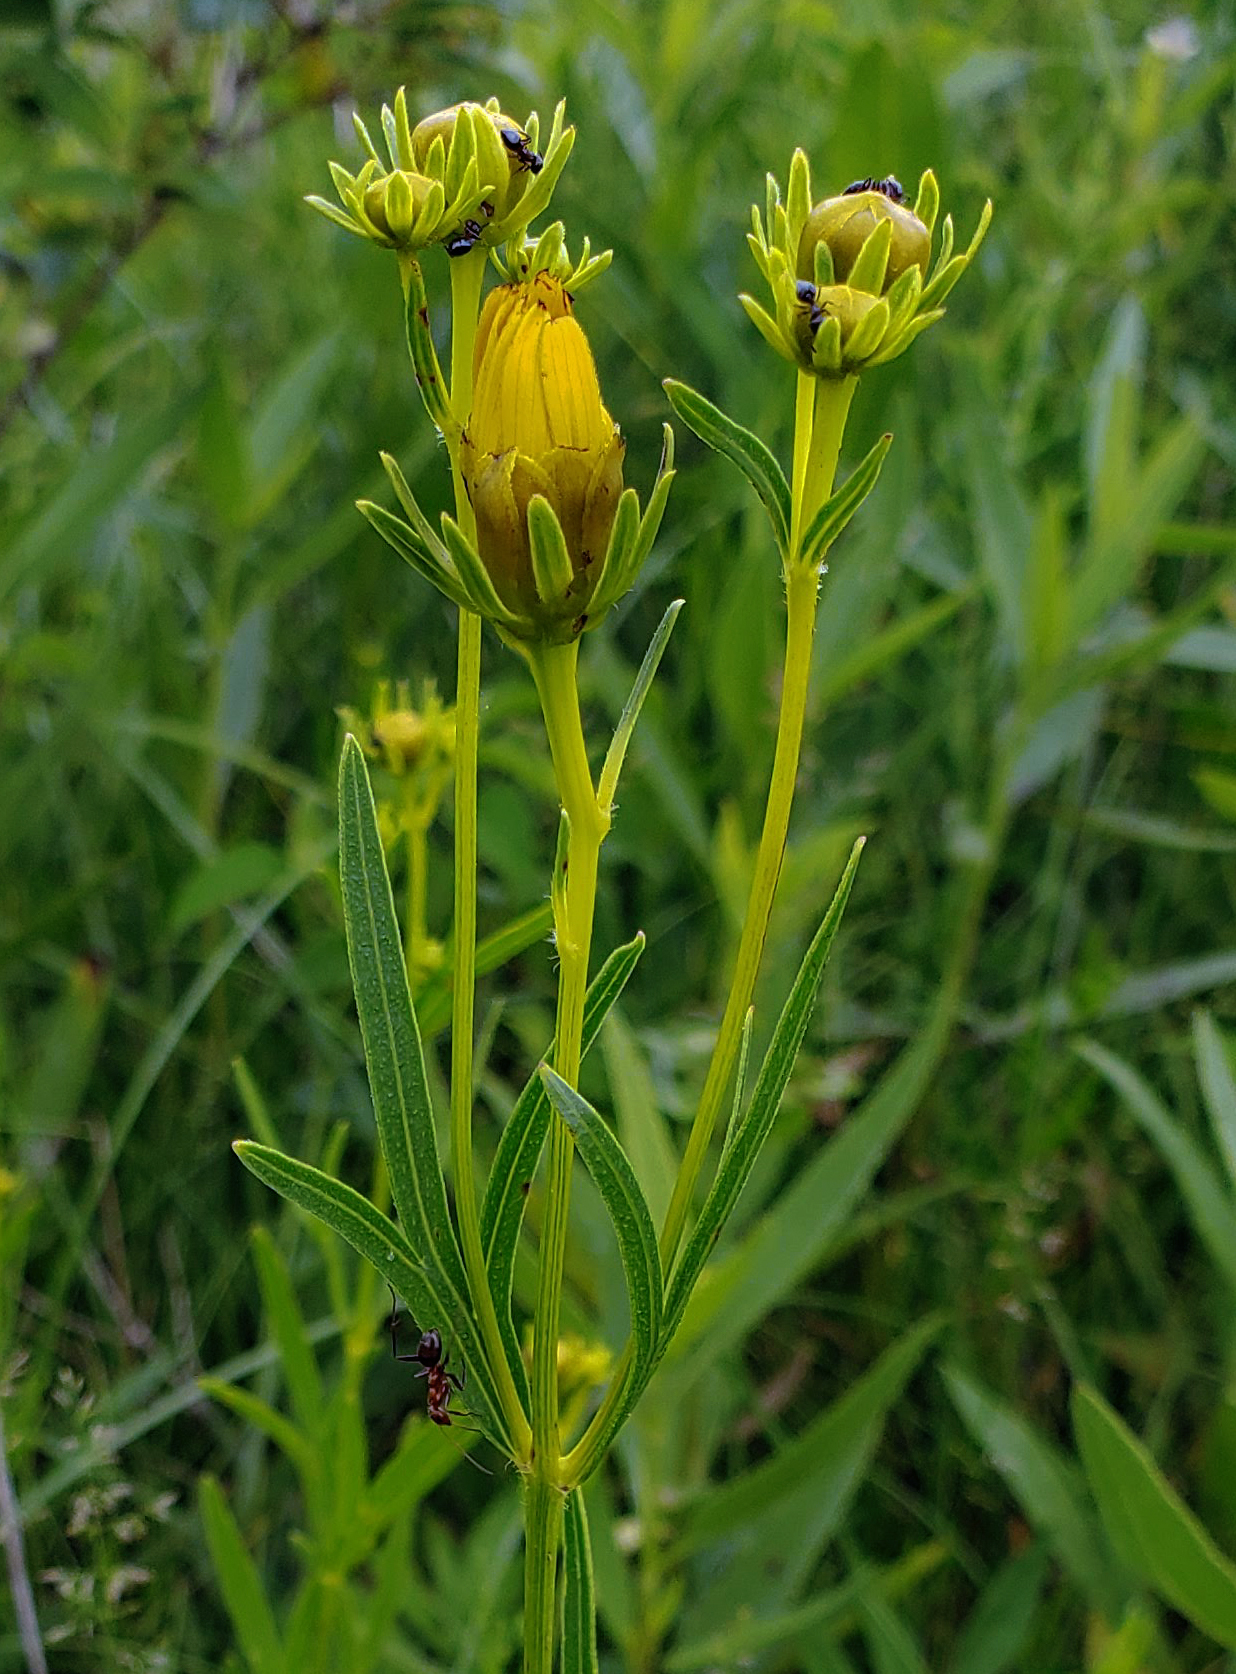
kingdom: Plantae
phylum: Tracheophyta
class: Magnoliopsida
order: Asterales
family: Asteraceae
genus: Coreopsis
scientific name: Coreopsis palmata
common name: Prairie coreopsis
